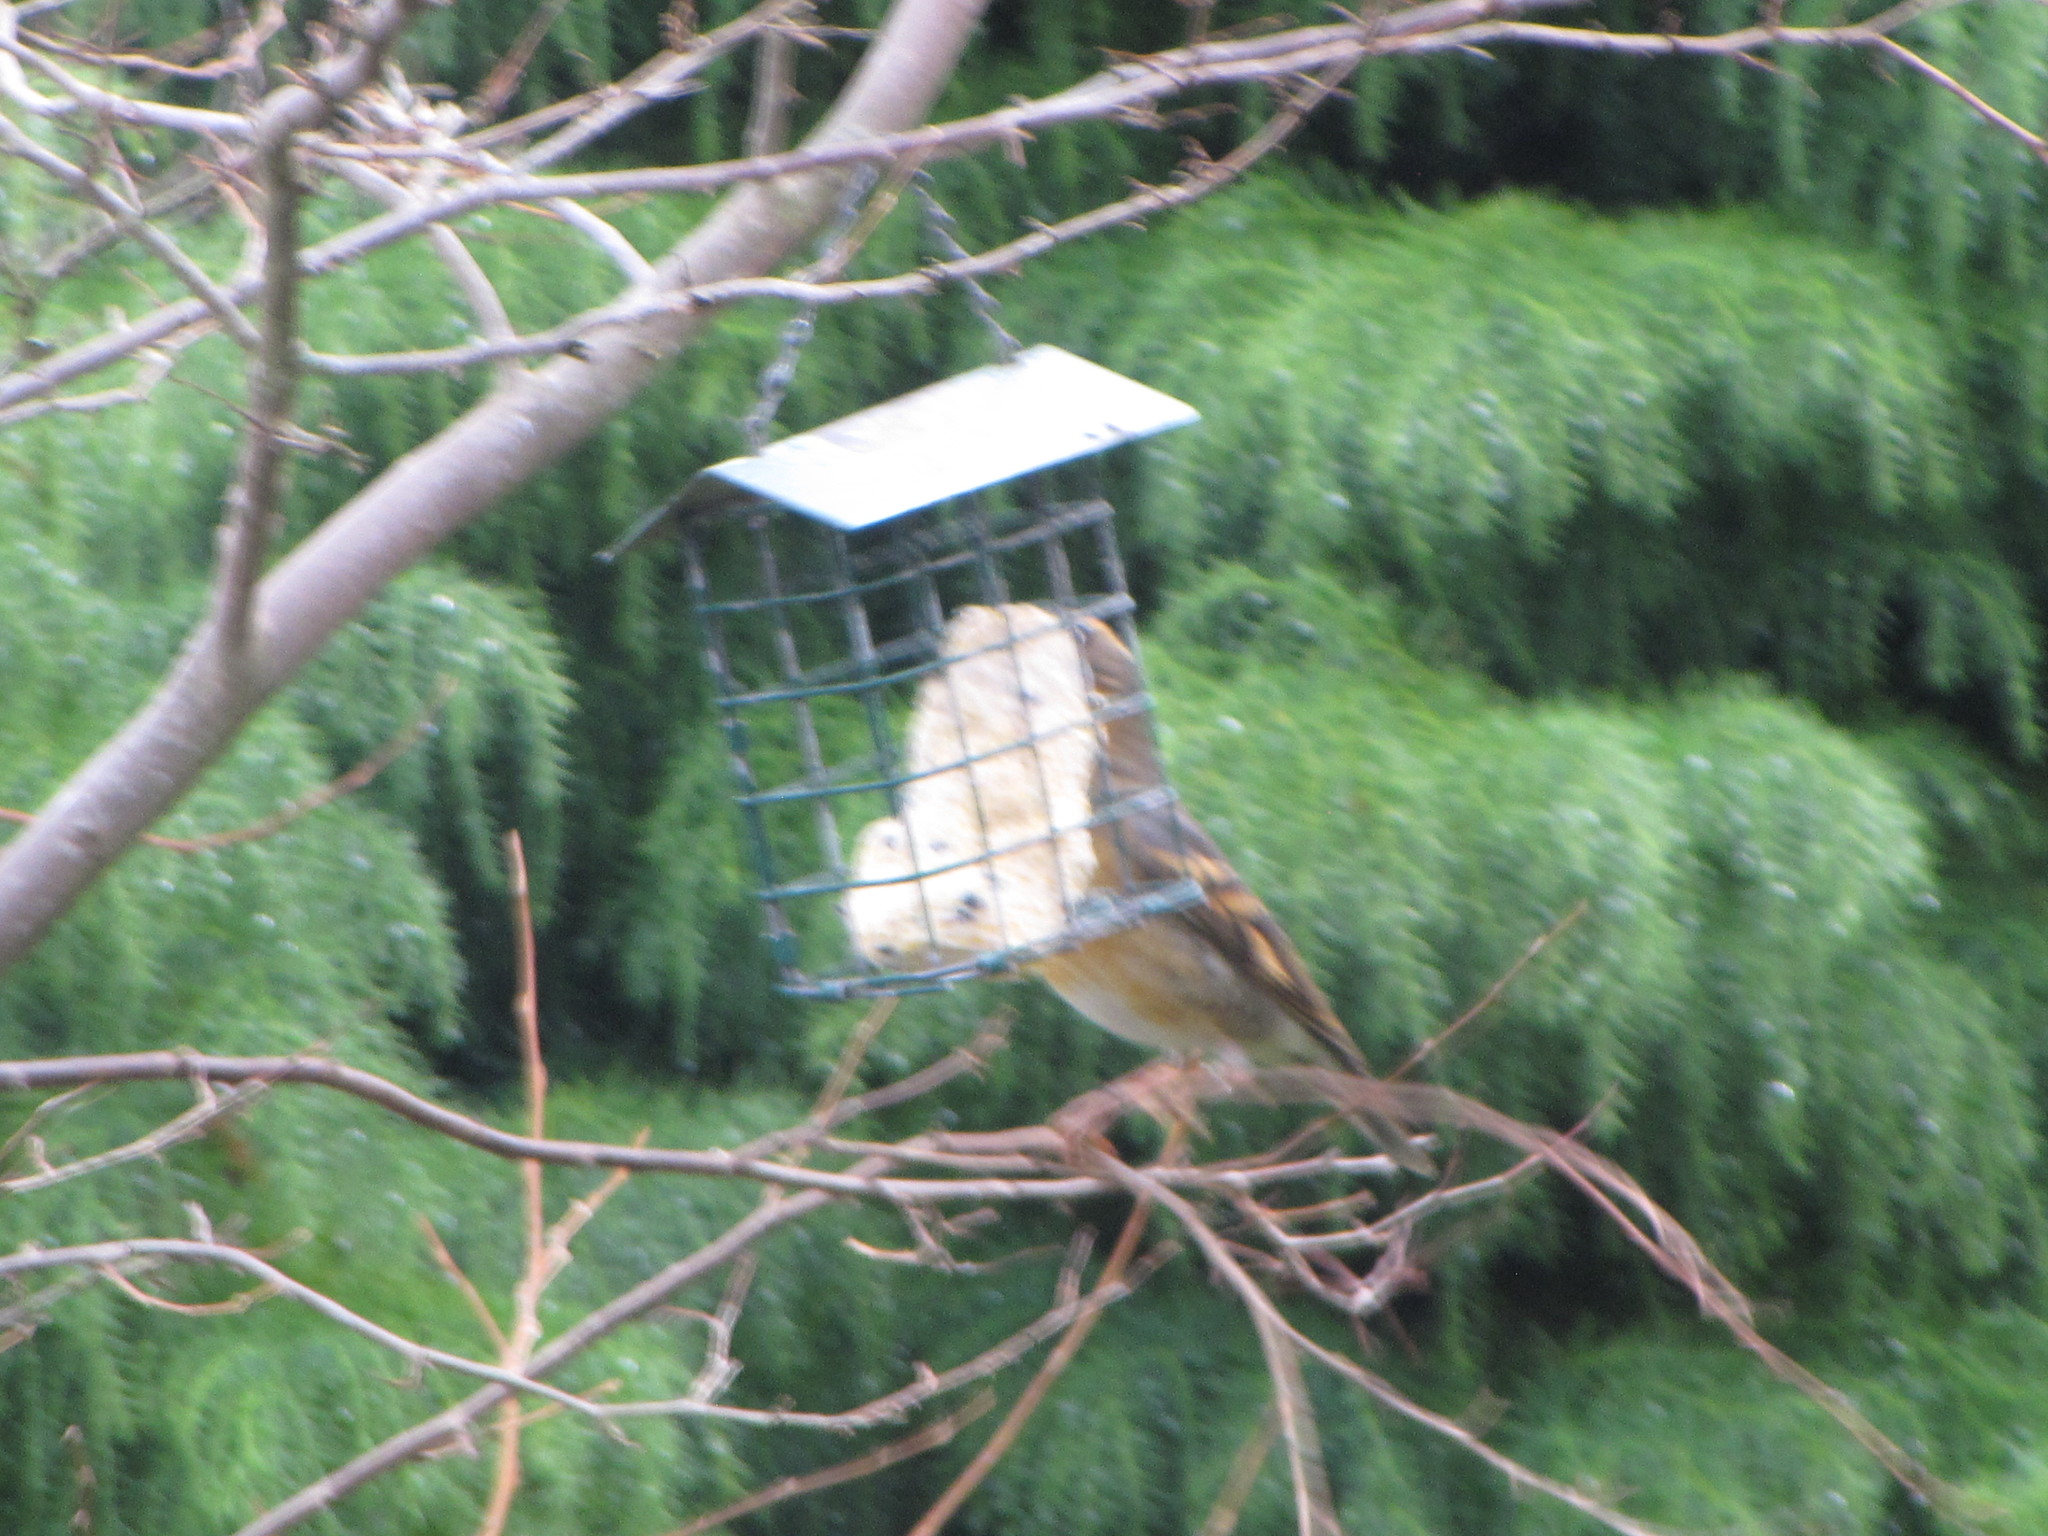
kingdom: Animalia
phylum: Chordata
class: Aves
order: Passeriformes
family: Turdidae
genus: Ixoreus
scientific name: Ixoreus naevius
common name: Varied thrush
